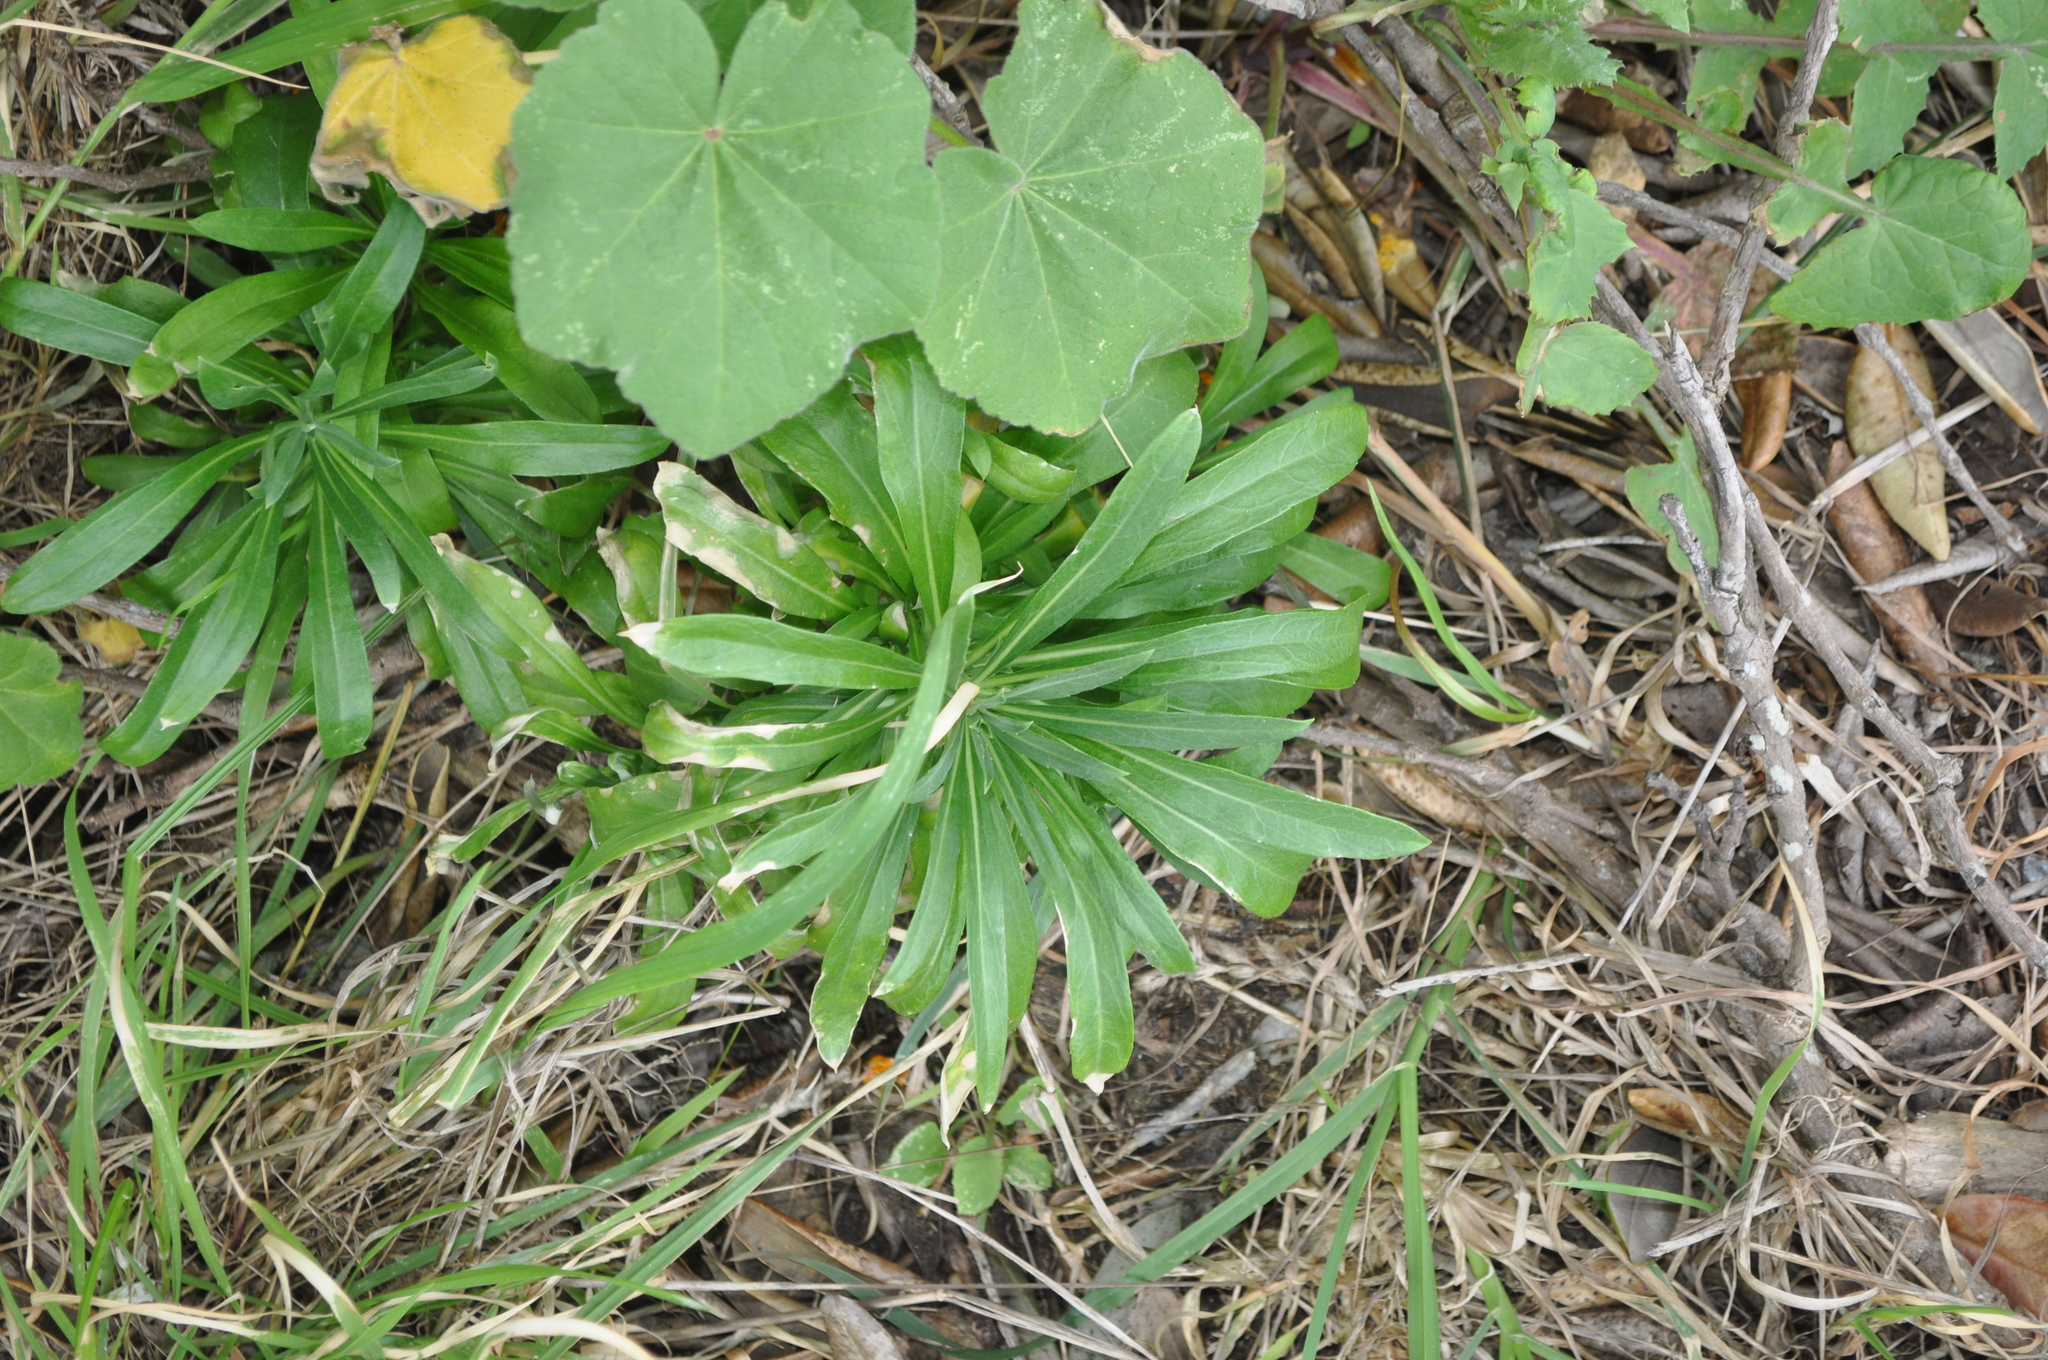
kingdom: Plantae
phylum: Tracheophyta
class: Magnoliopsida
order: Brassicales
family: Brassicaceae
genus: Erysimum
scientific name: Erysimum cheiri
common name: Wallflower
